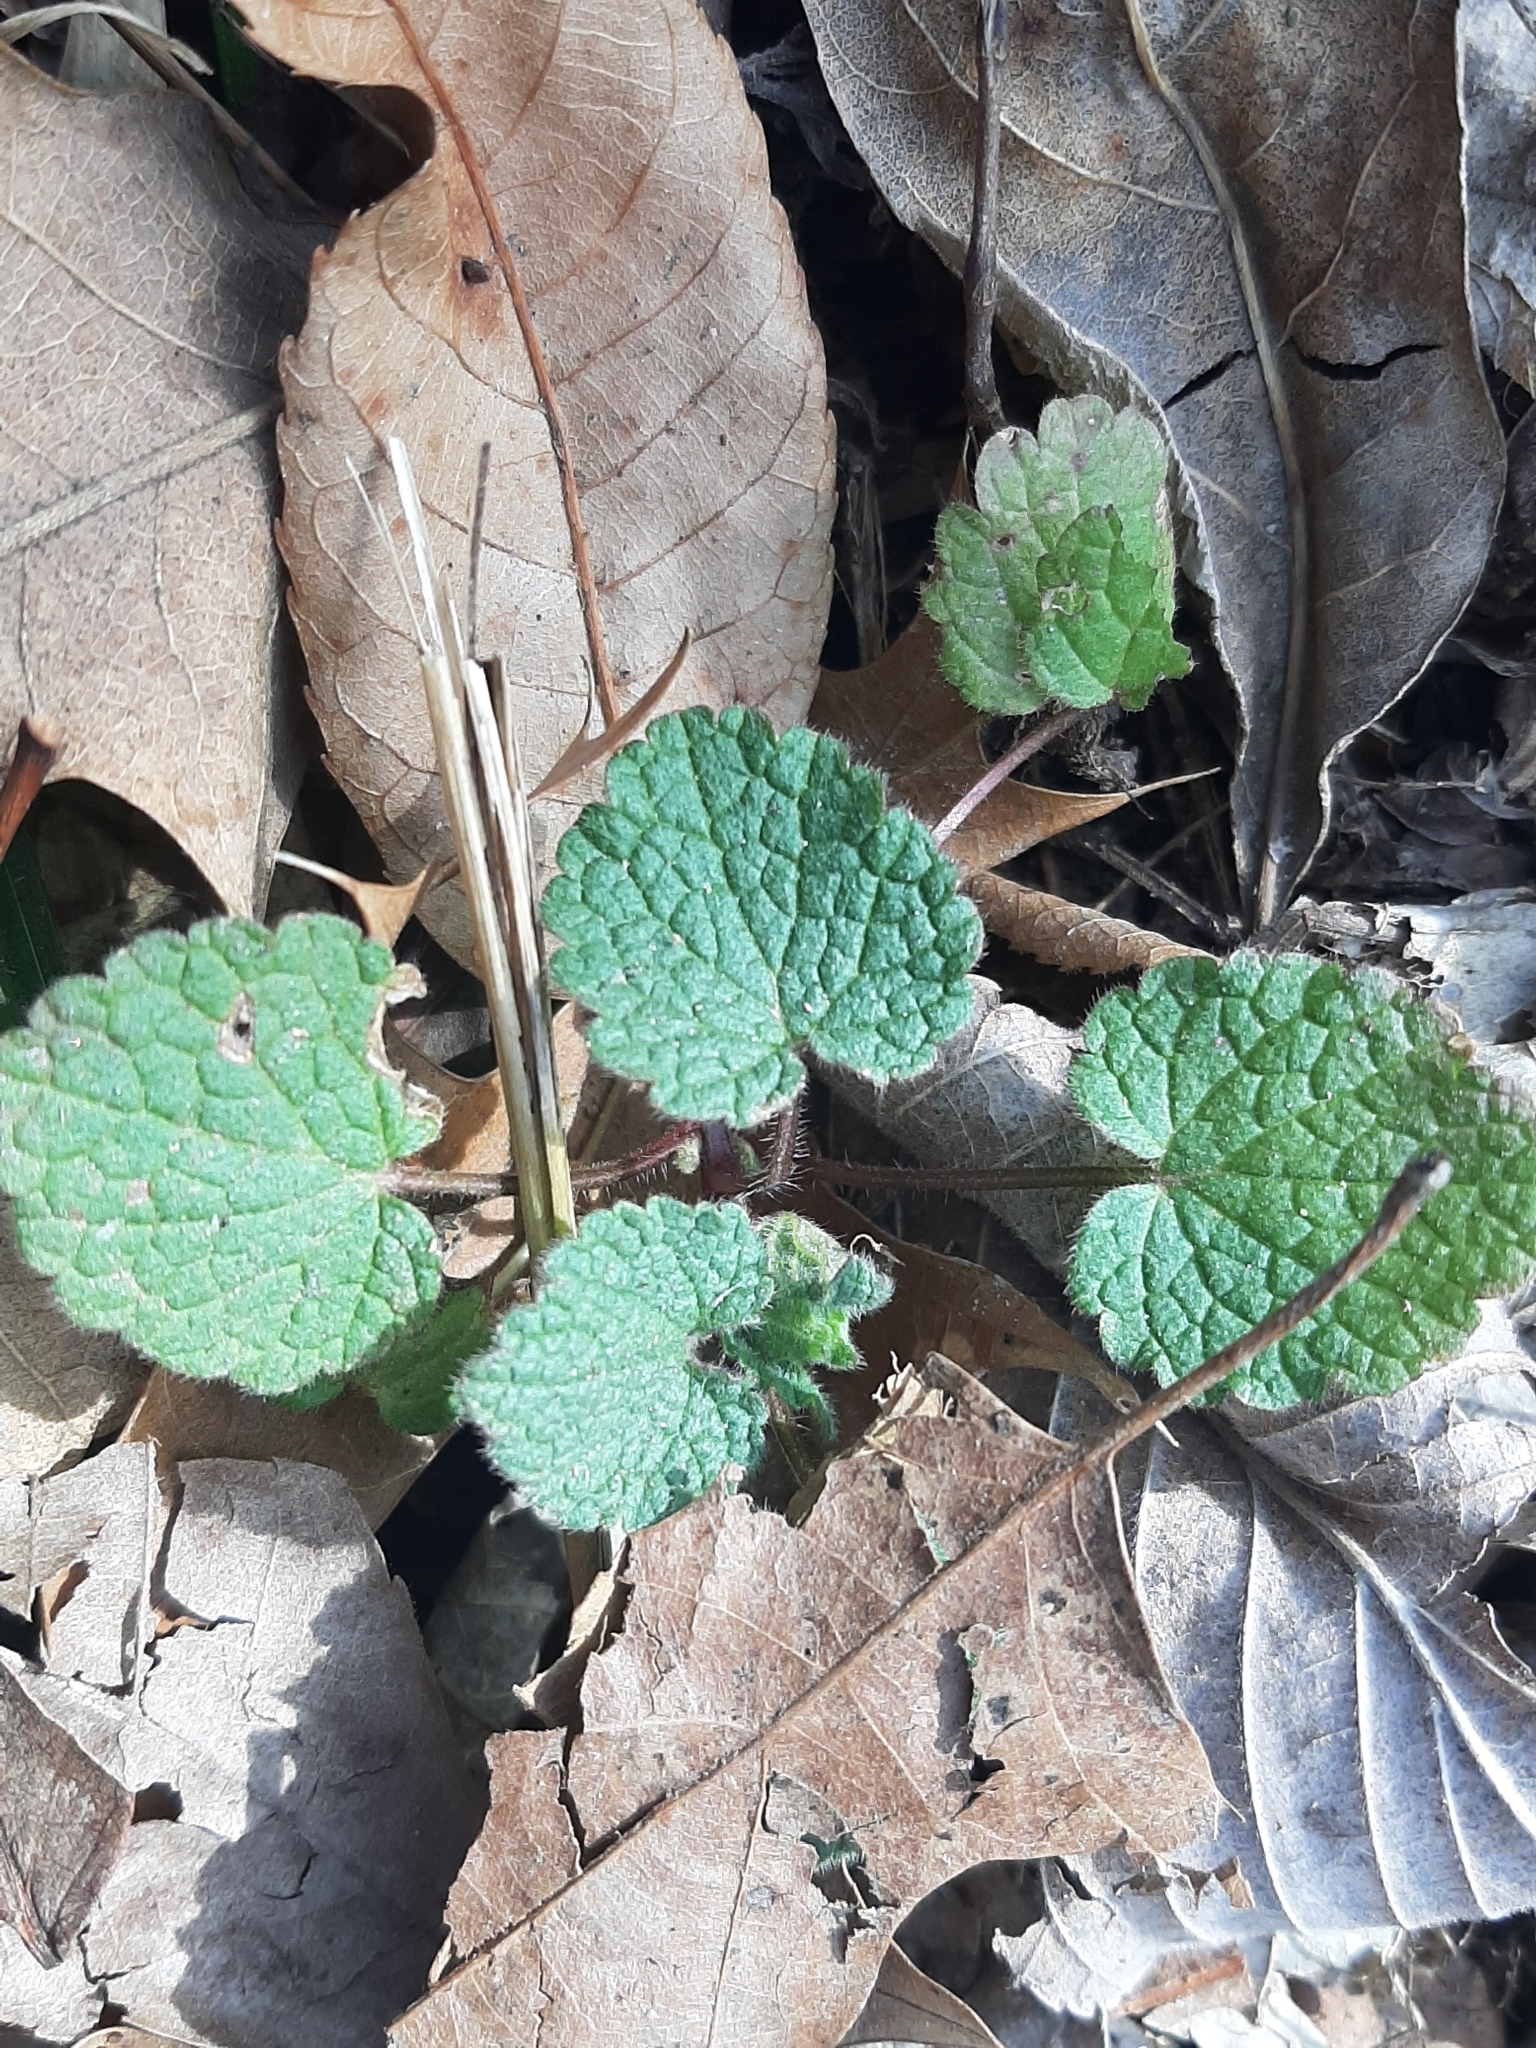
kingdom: Plantae
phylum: Tracheophyta
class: Magnoliopsida
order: Lamiales
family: Lamiaceae
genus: Lamium
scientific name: Lamium purpureum
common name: Red dead-nettle
